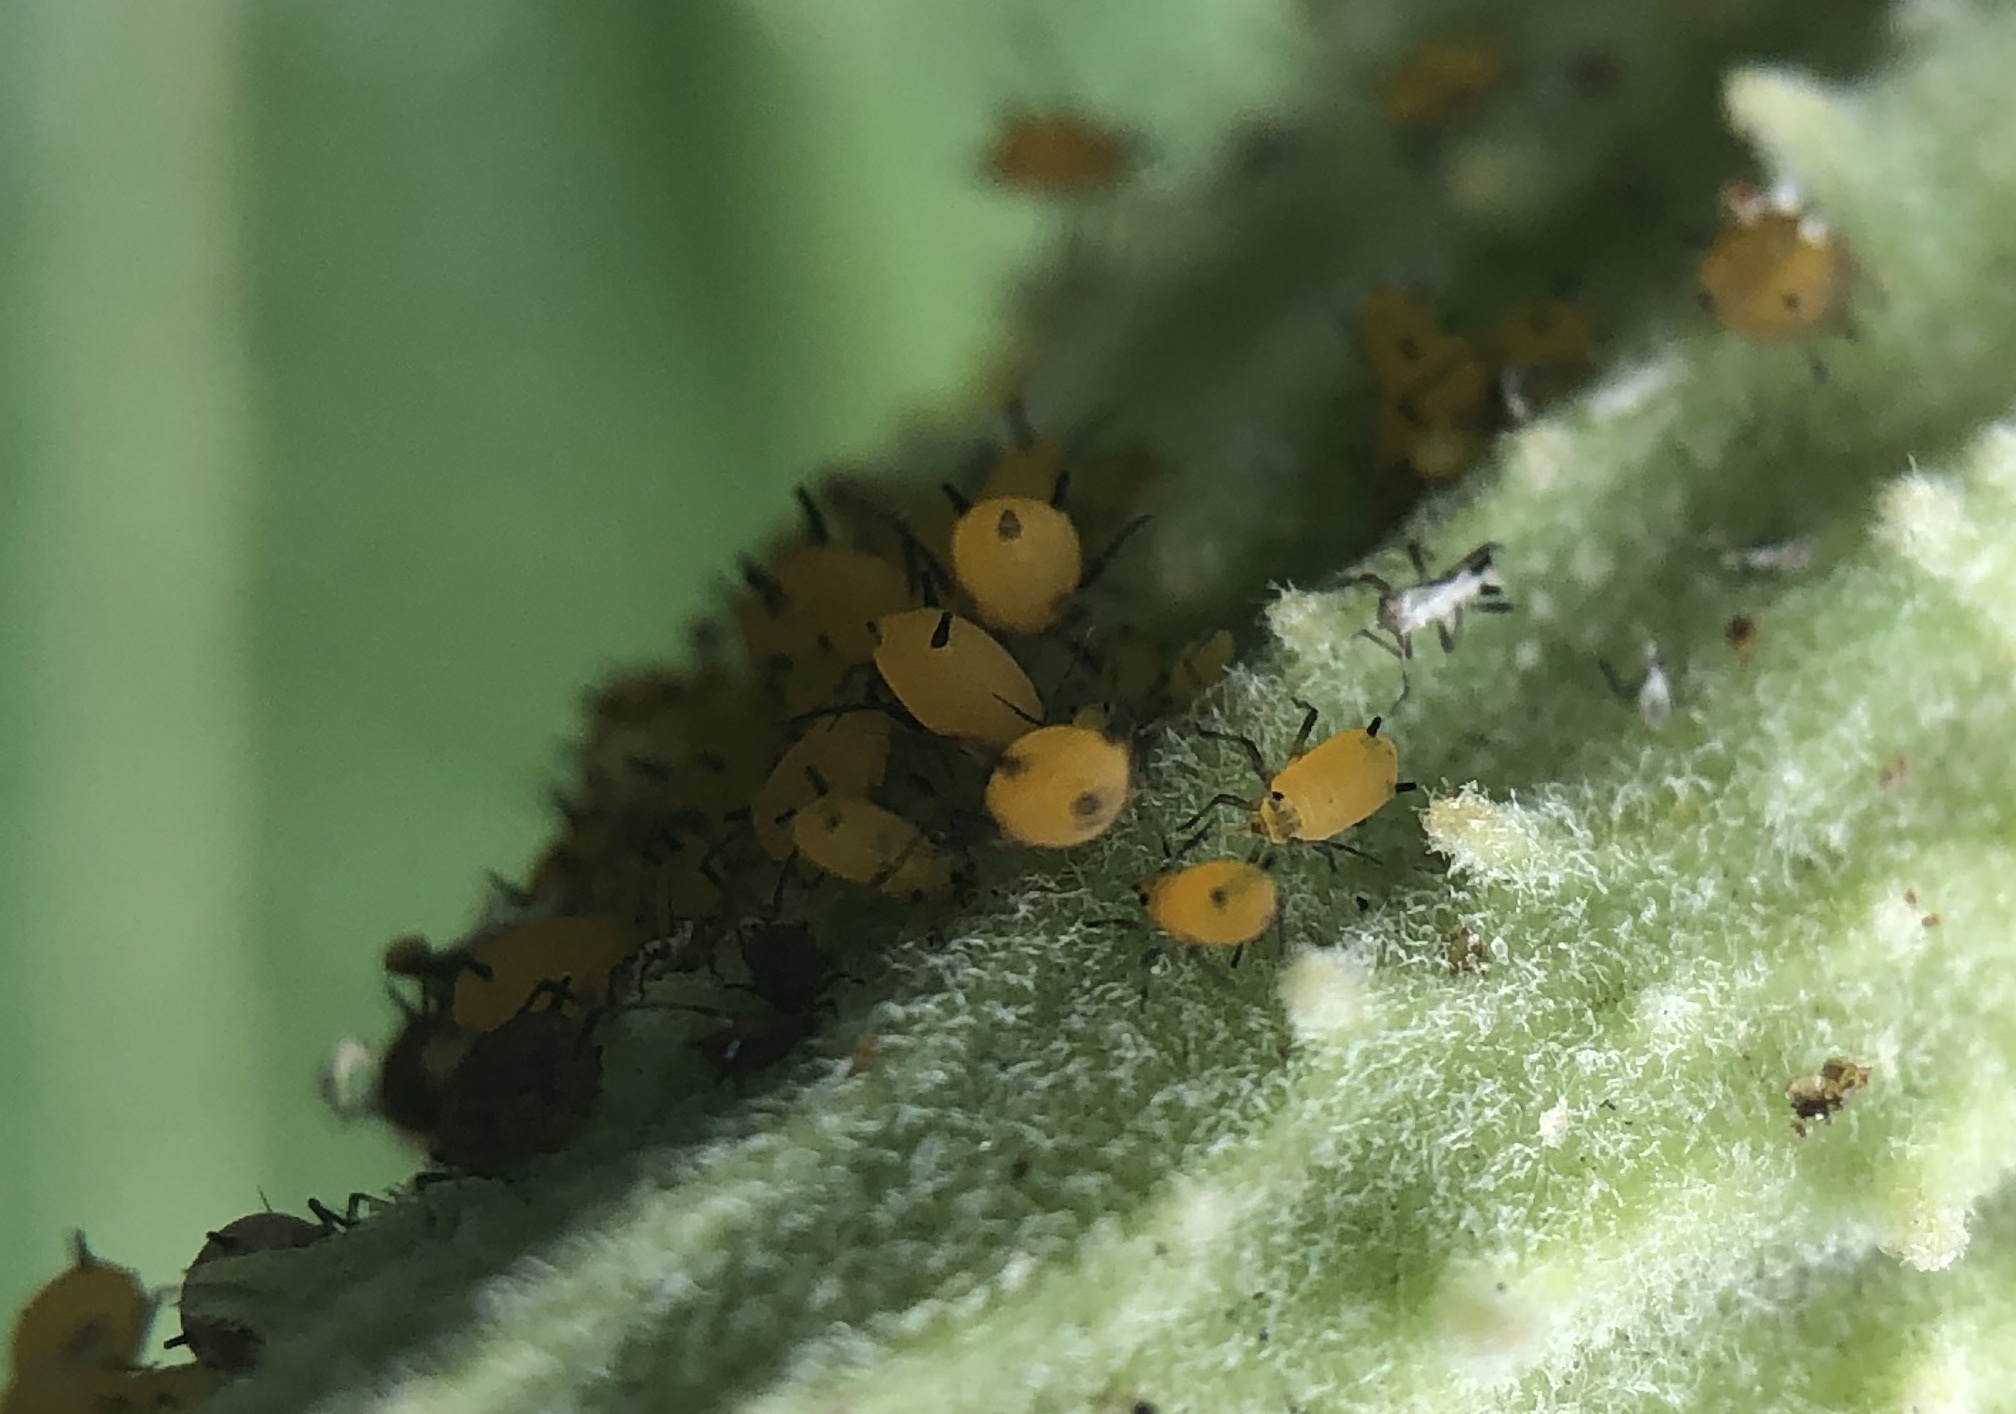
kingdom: Animalia
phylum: Arthropoda
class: Insecta
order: Hemiptera
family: Aphididae
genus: Aphis
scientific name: Aphis nerii
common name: Oleander aphid
